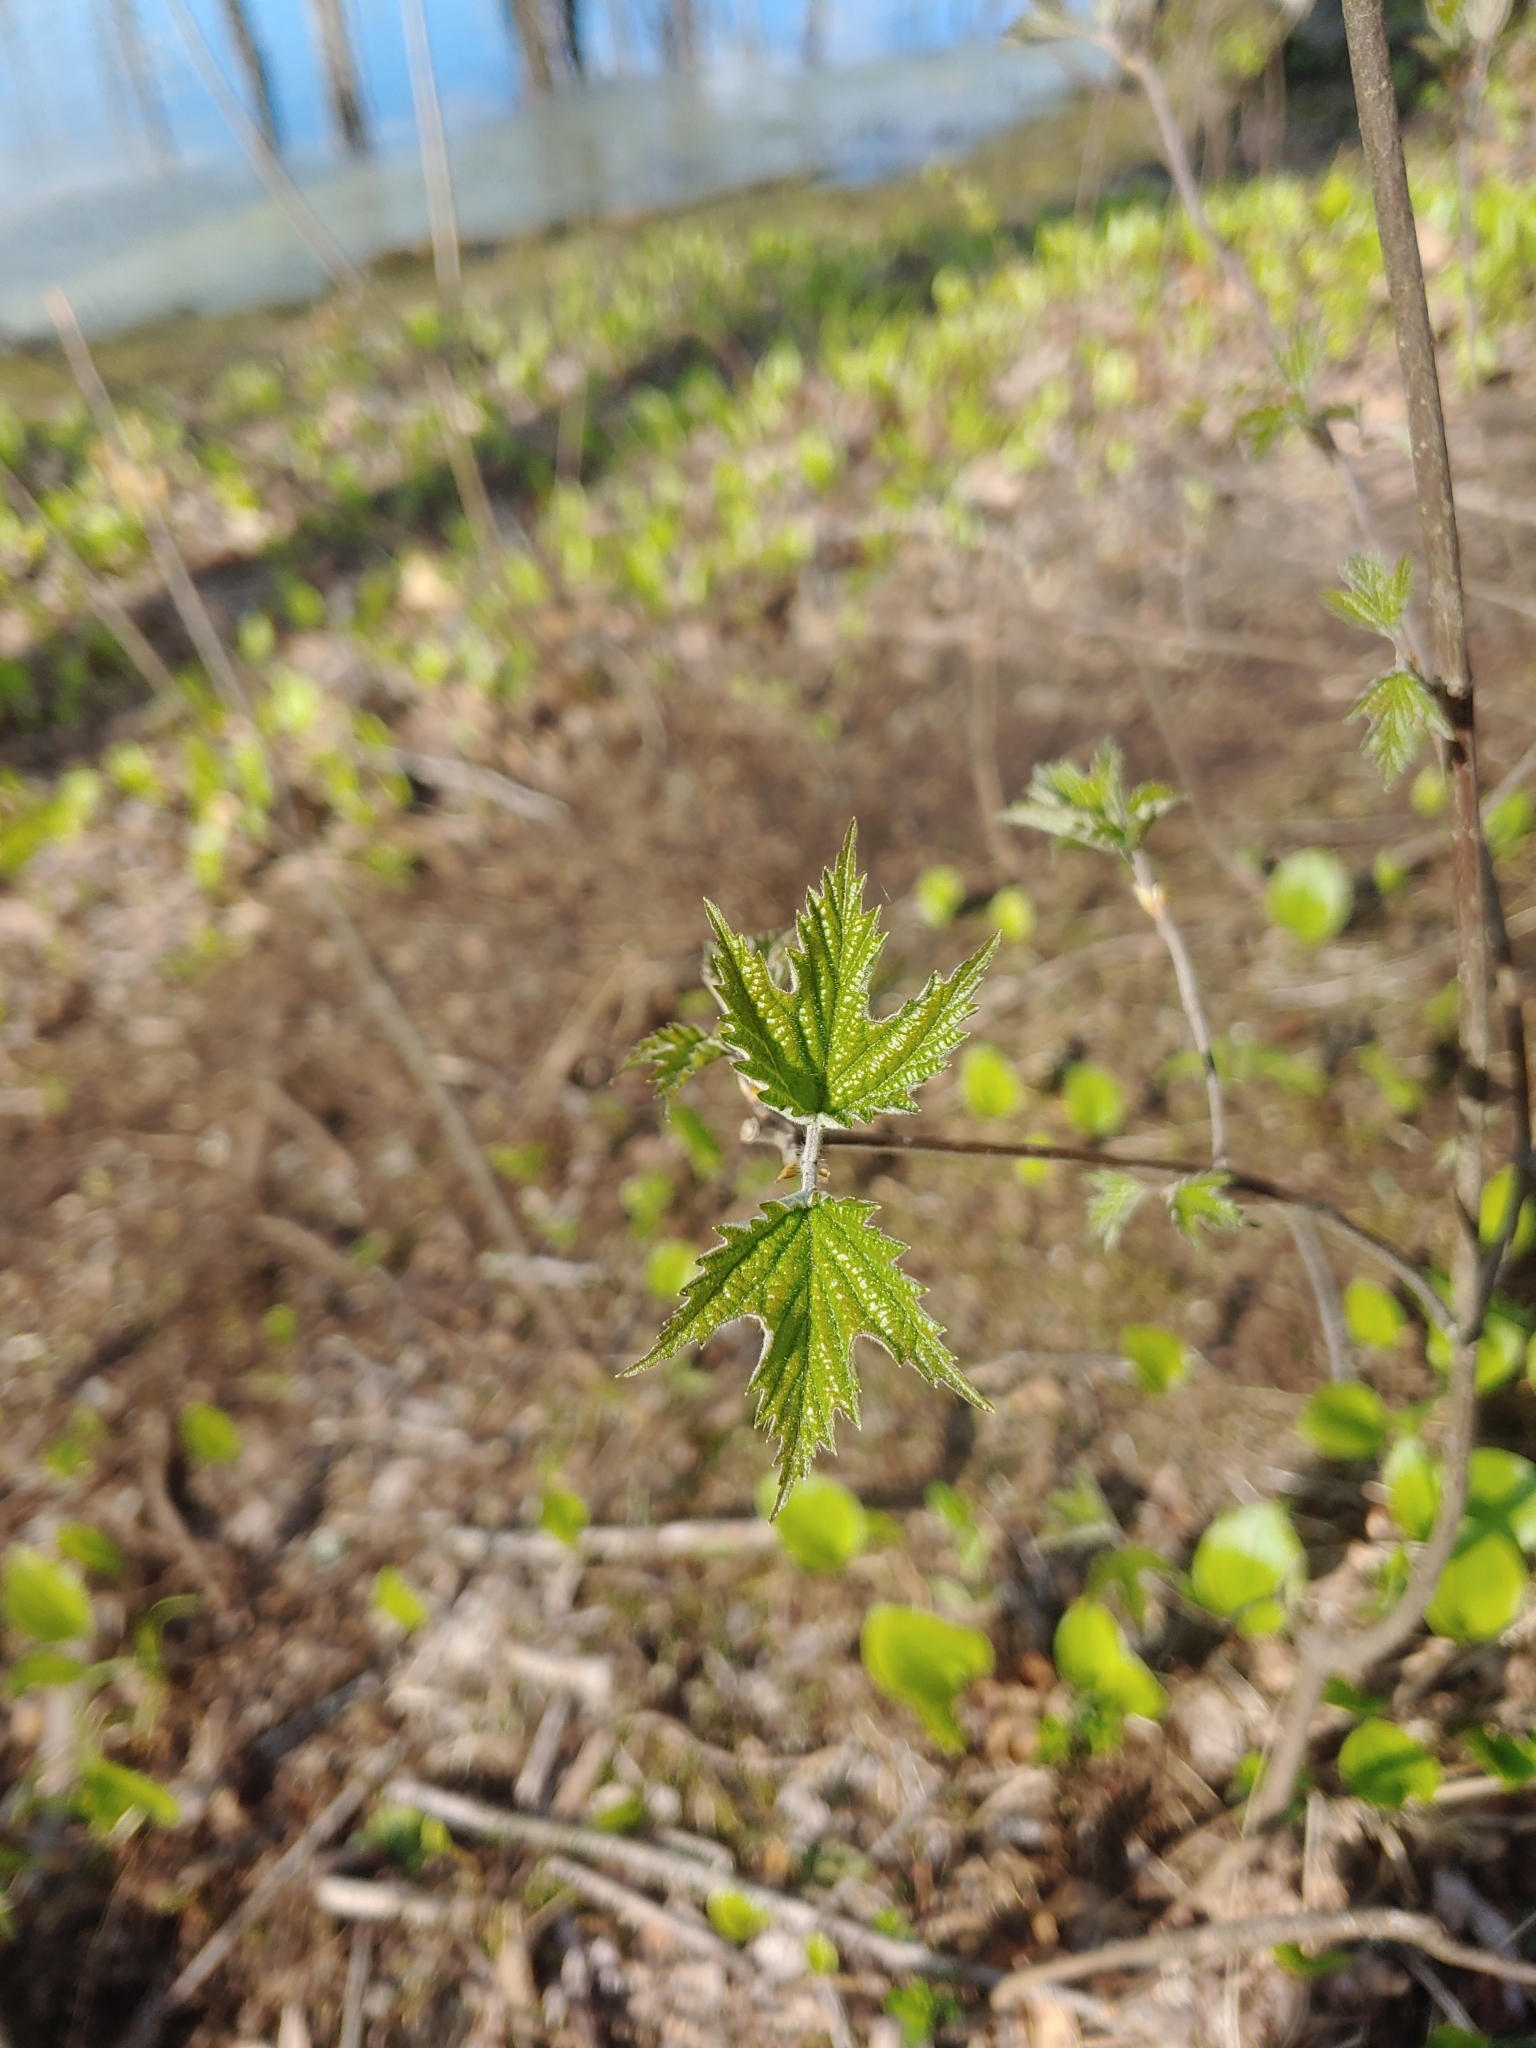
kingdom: Plantae
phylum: Tracheophyta
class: Magnoliopsida
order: Dipsacales
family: Viburnaceae
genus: Viburnum
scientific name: Viburnum acerifolium
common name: Dockmackie
